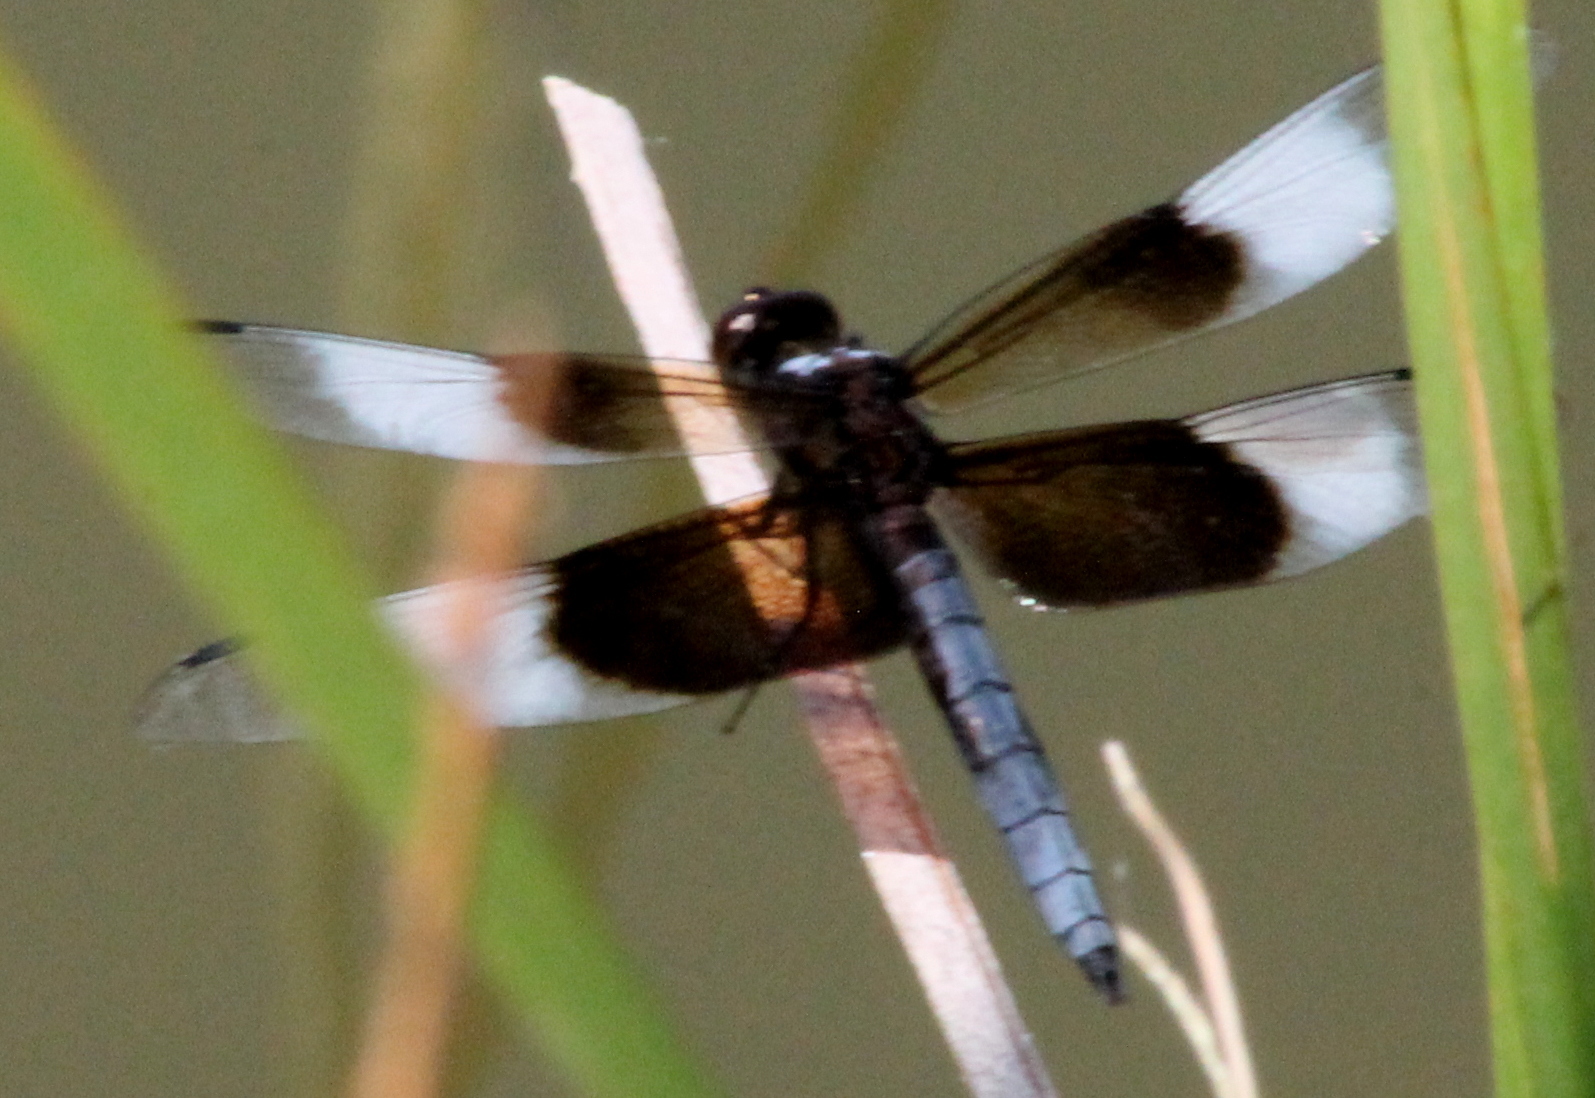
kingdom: Animalia
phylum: Arthropoda
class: Insecta
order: Odonata
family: Libellulidae
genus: Libellula
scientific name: Libellula luctuosa
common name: Widow skimmer
